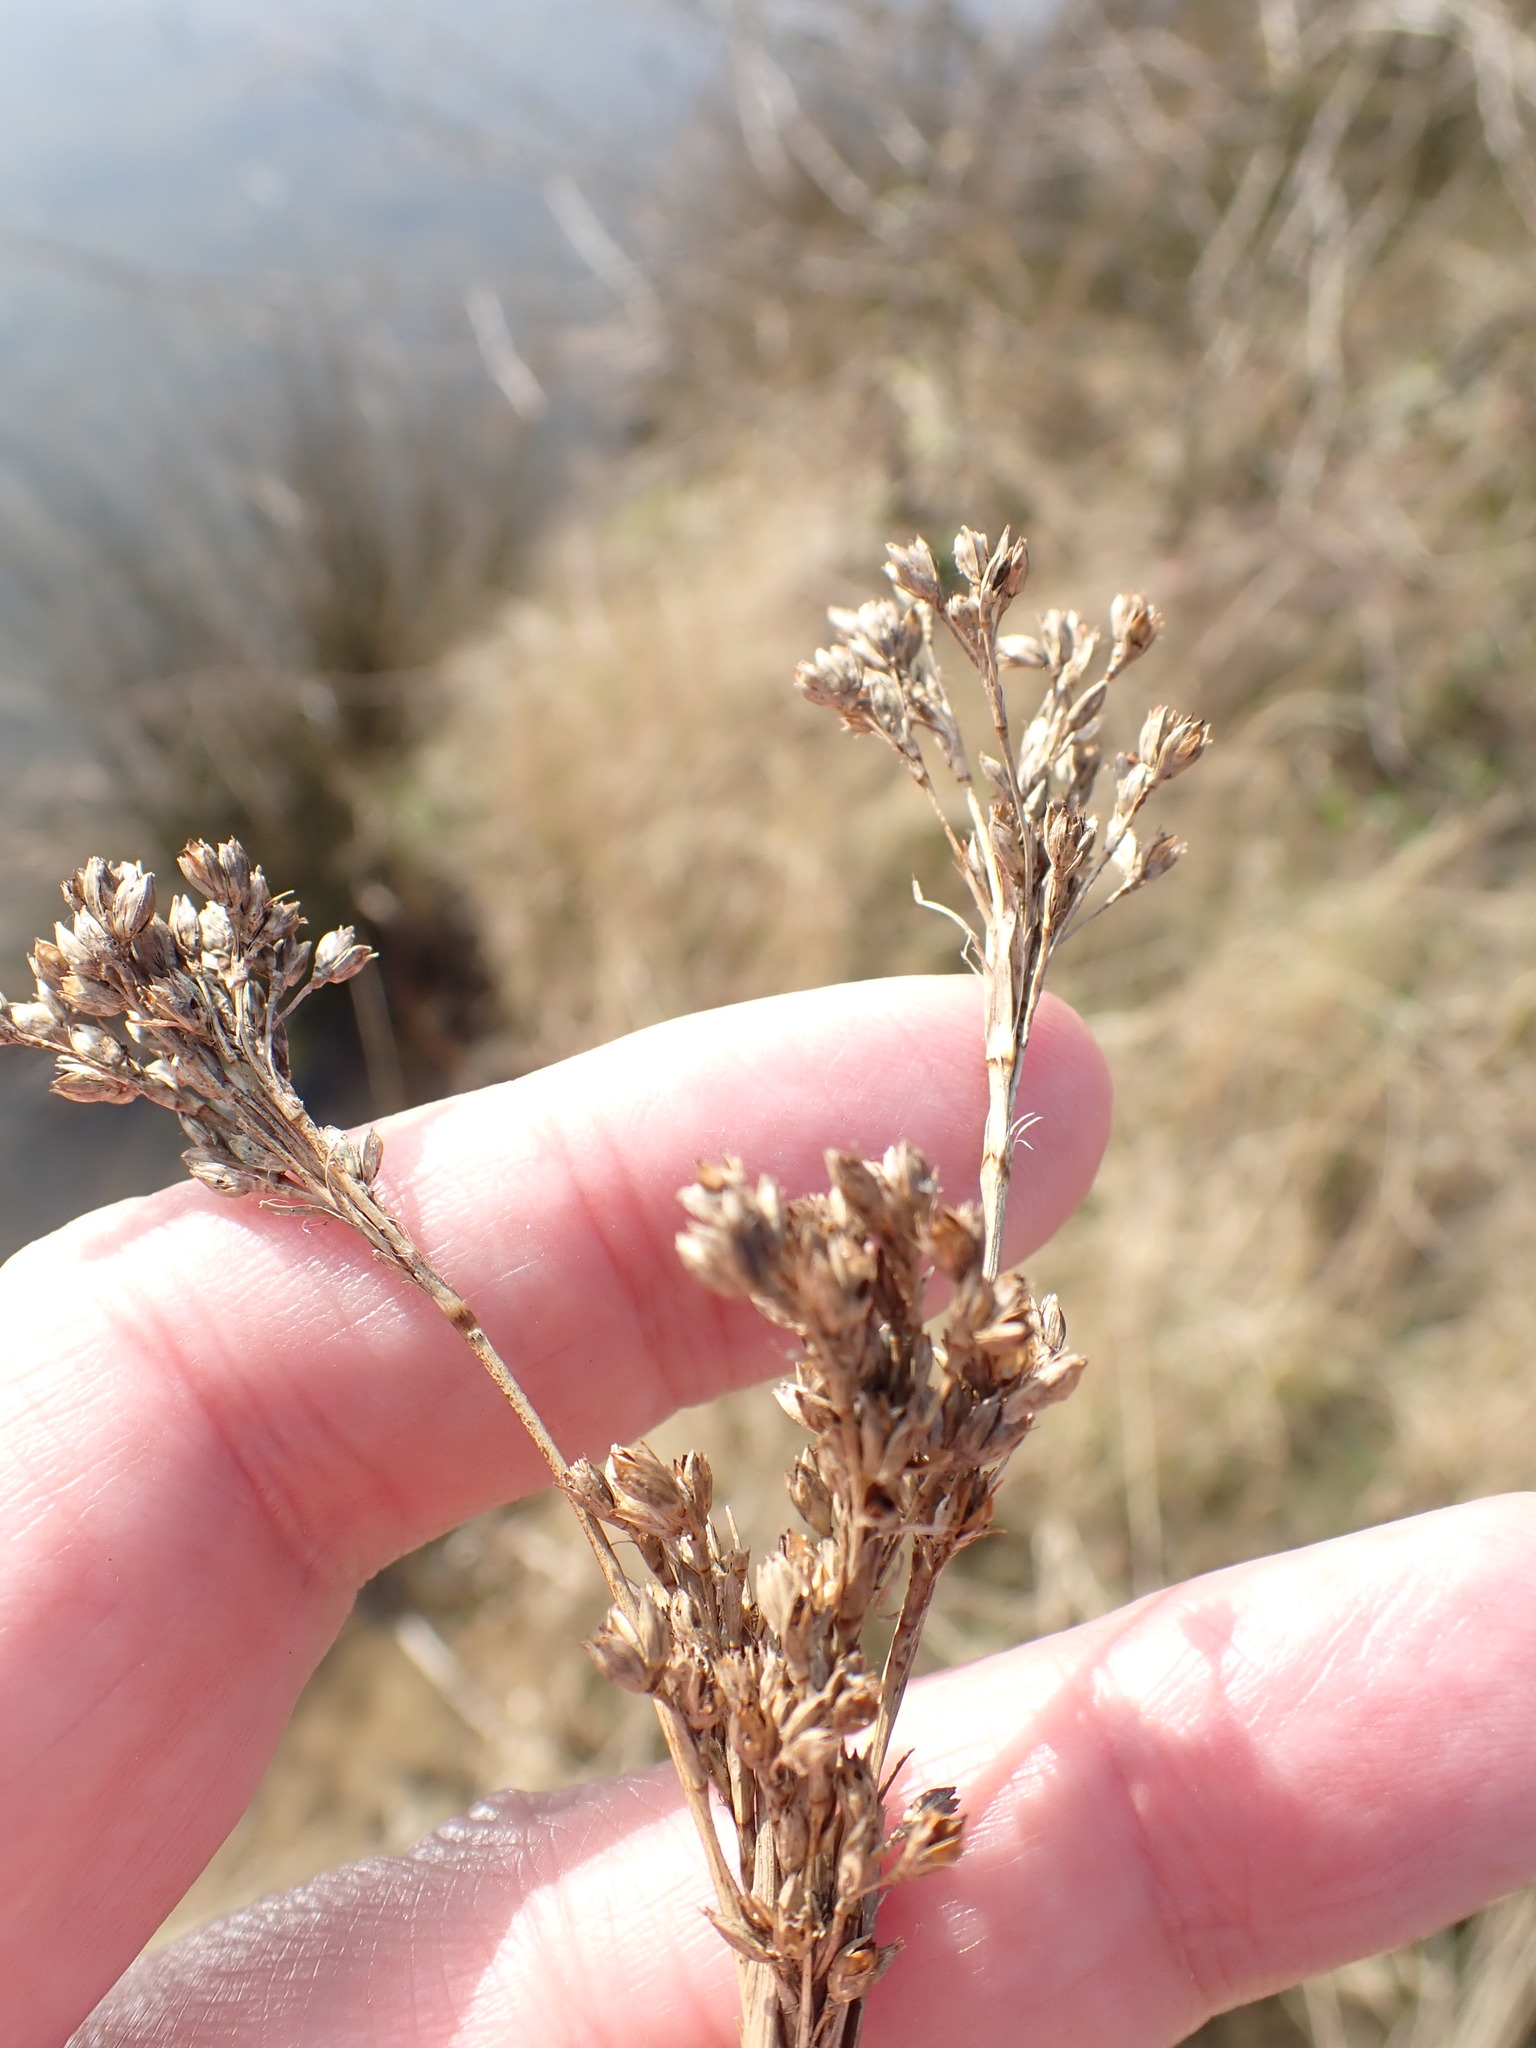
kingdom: Plantae
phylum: Tracheophyta
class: Liliopsida
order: Poales
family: Juncaceae
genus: Juncus
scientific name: Juncus maritimus
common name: Sea rush
